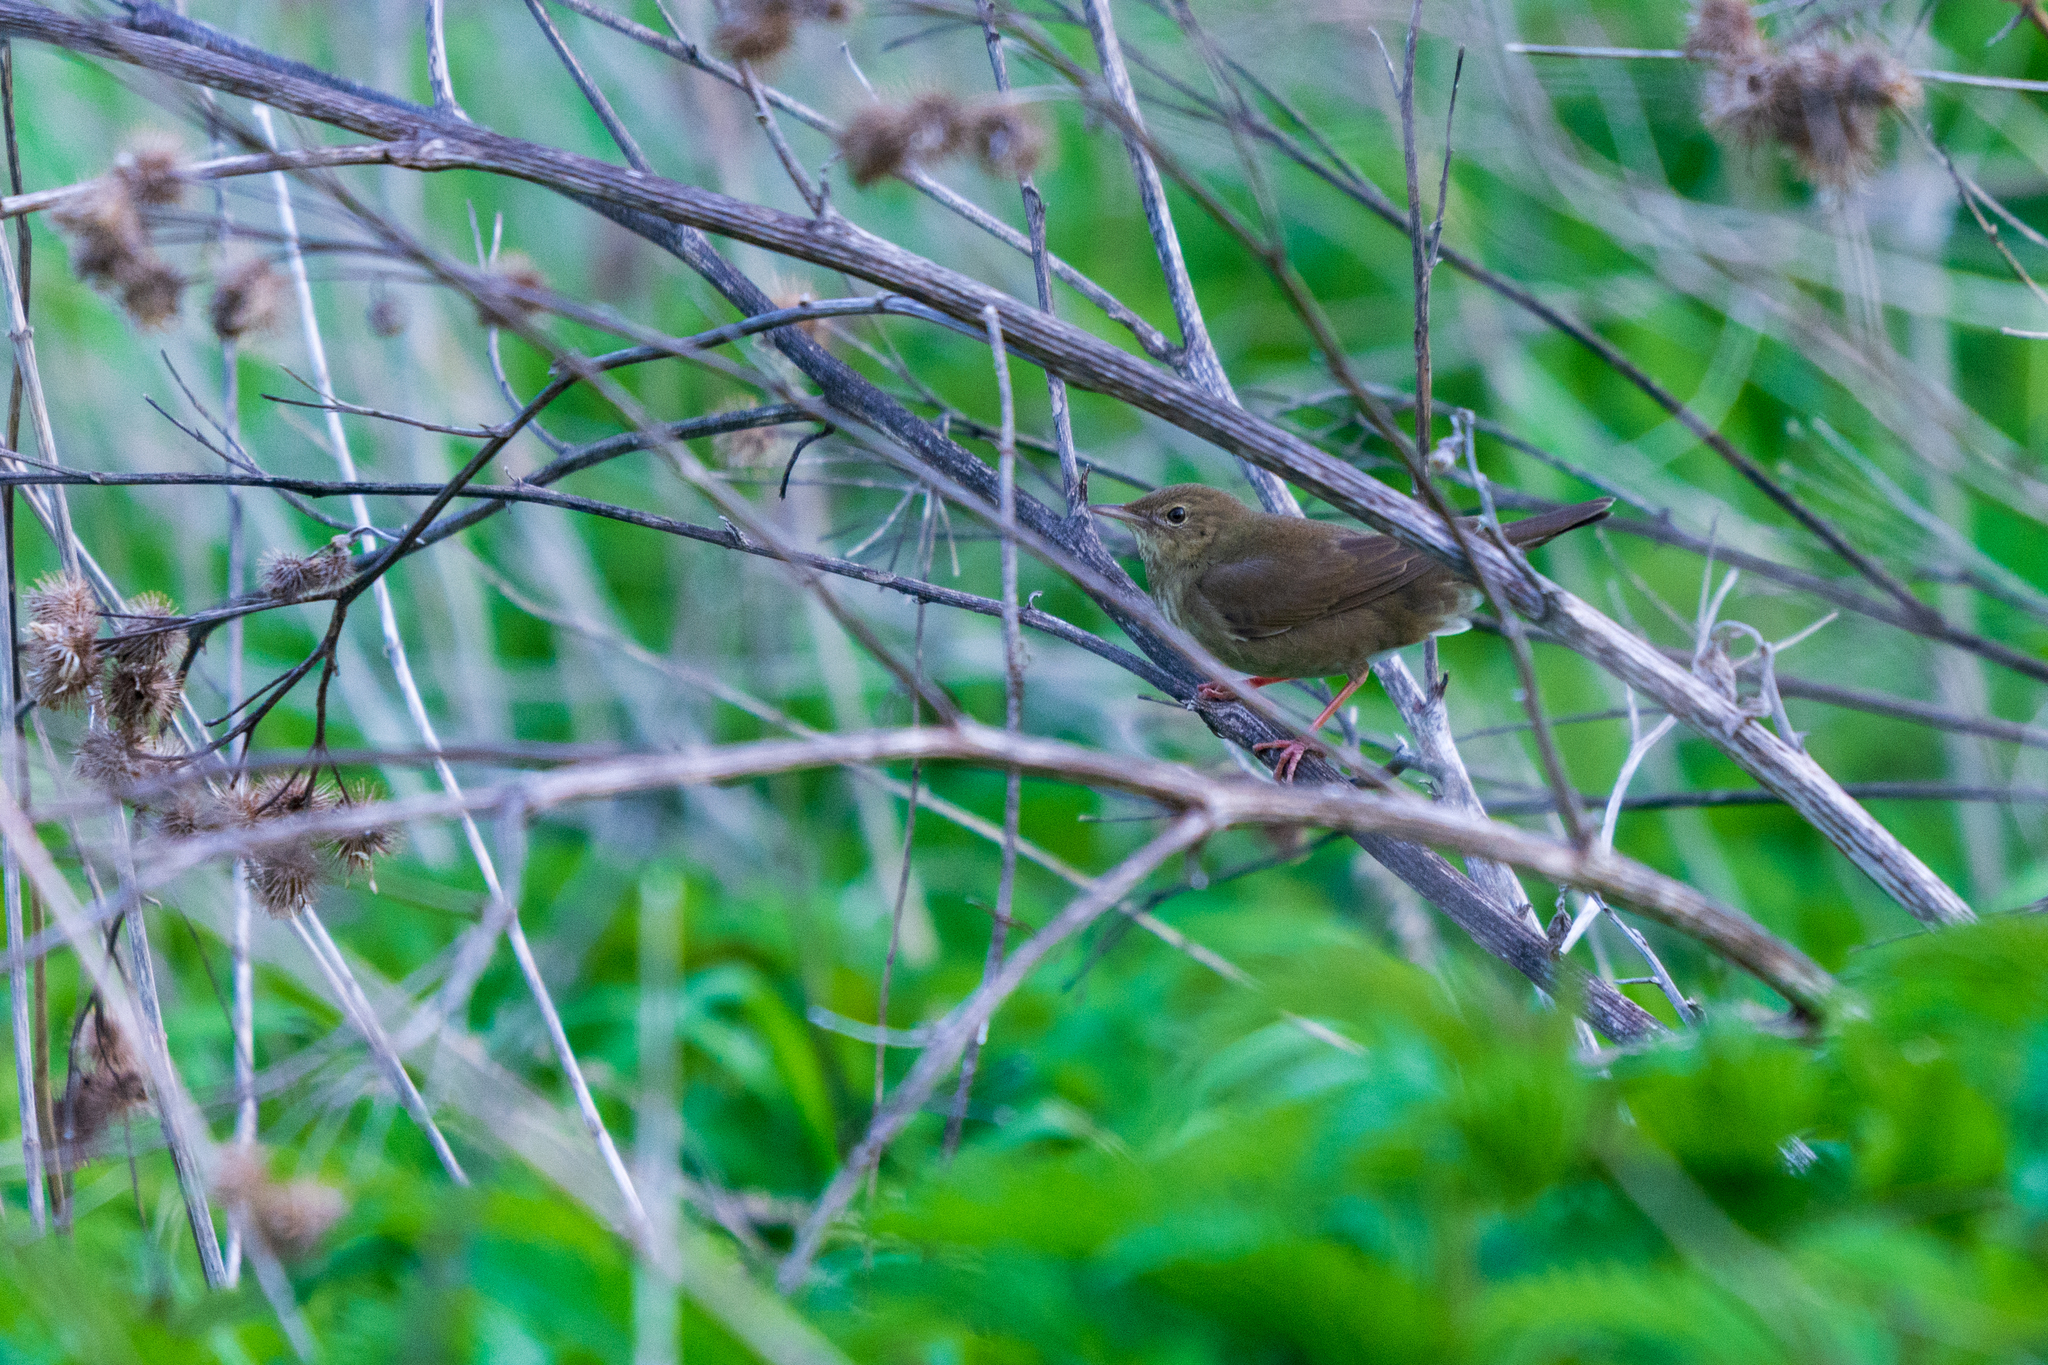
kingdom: Animalia
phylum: Chordata
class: Aves
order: Passeriformes
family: Locustellidae
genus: Locustella
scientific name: Locustella fluviatilis
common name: River warbler
